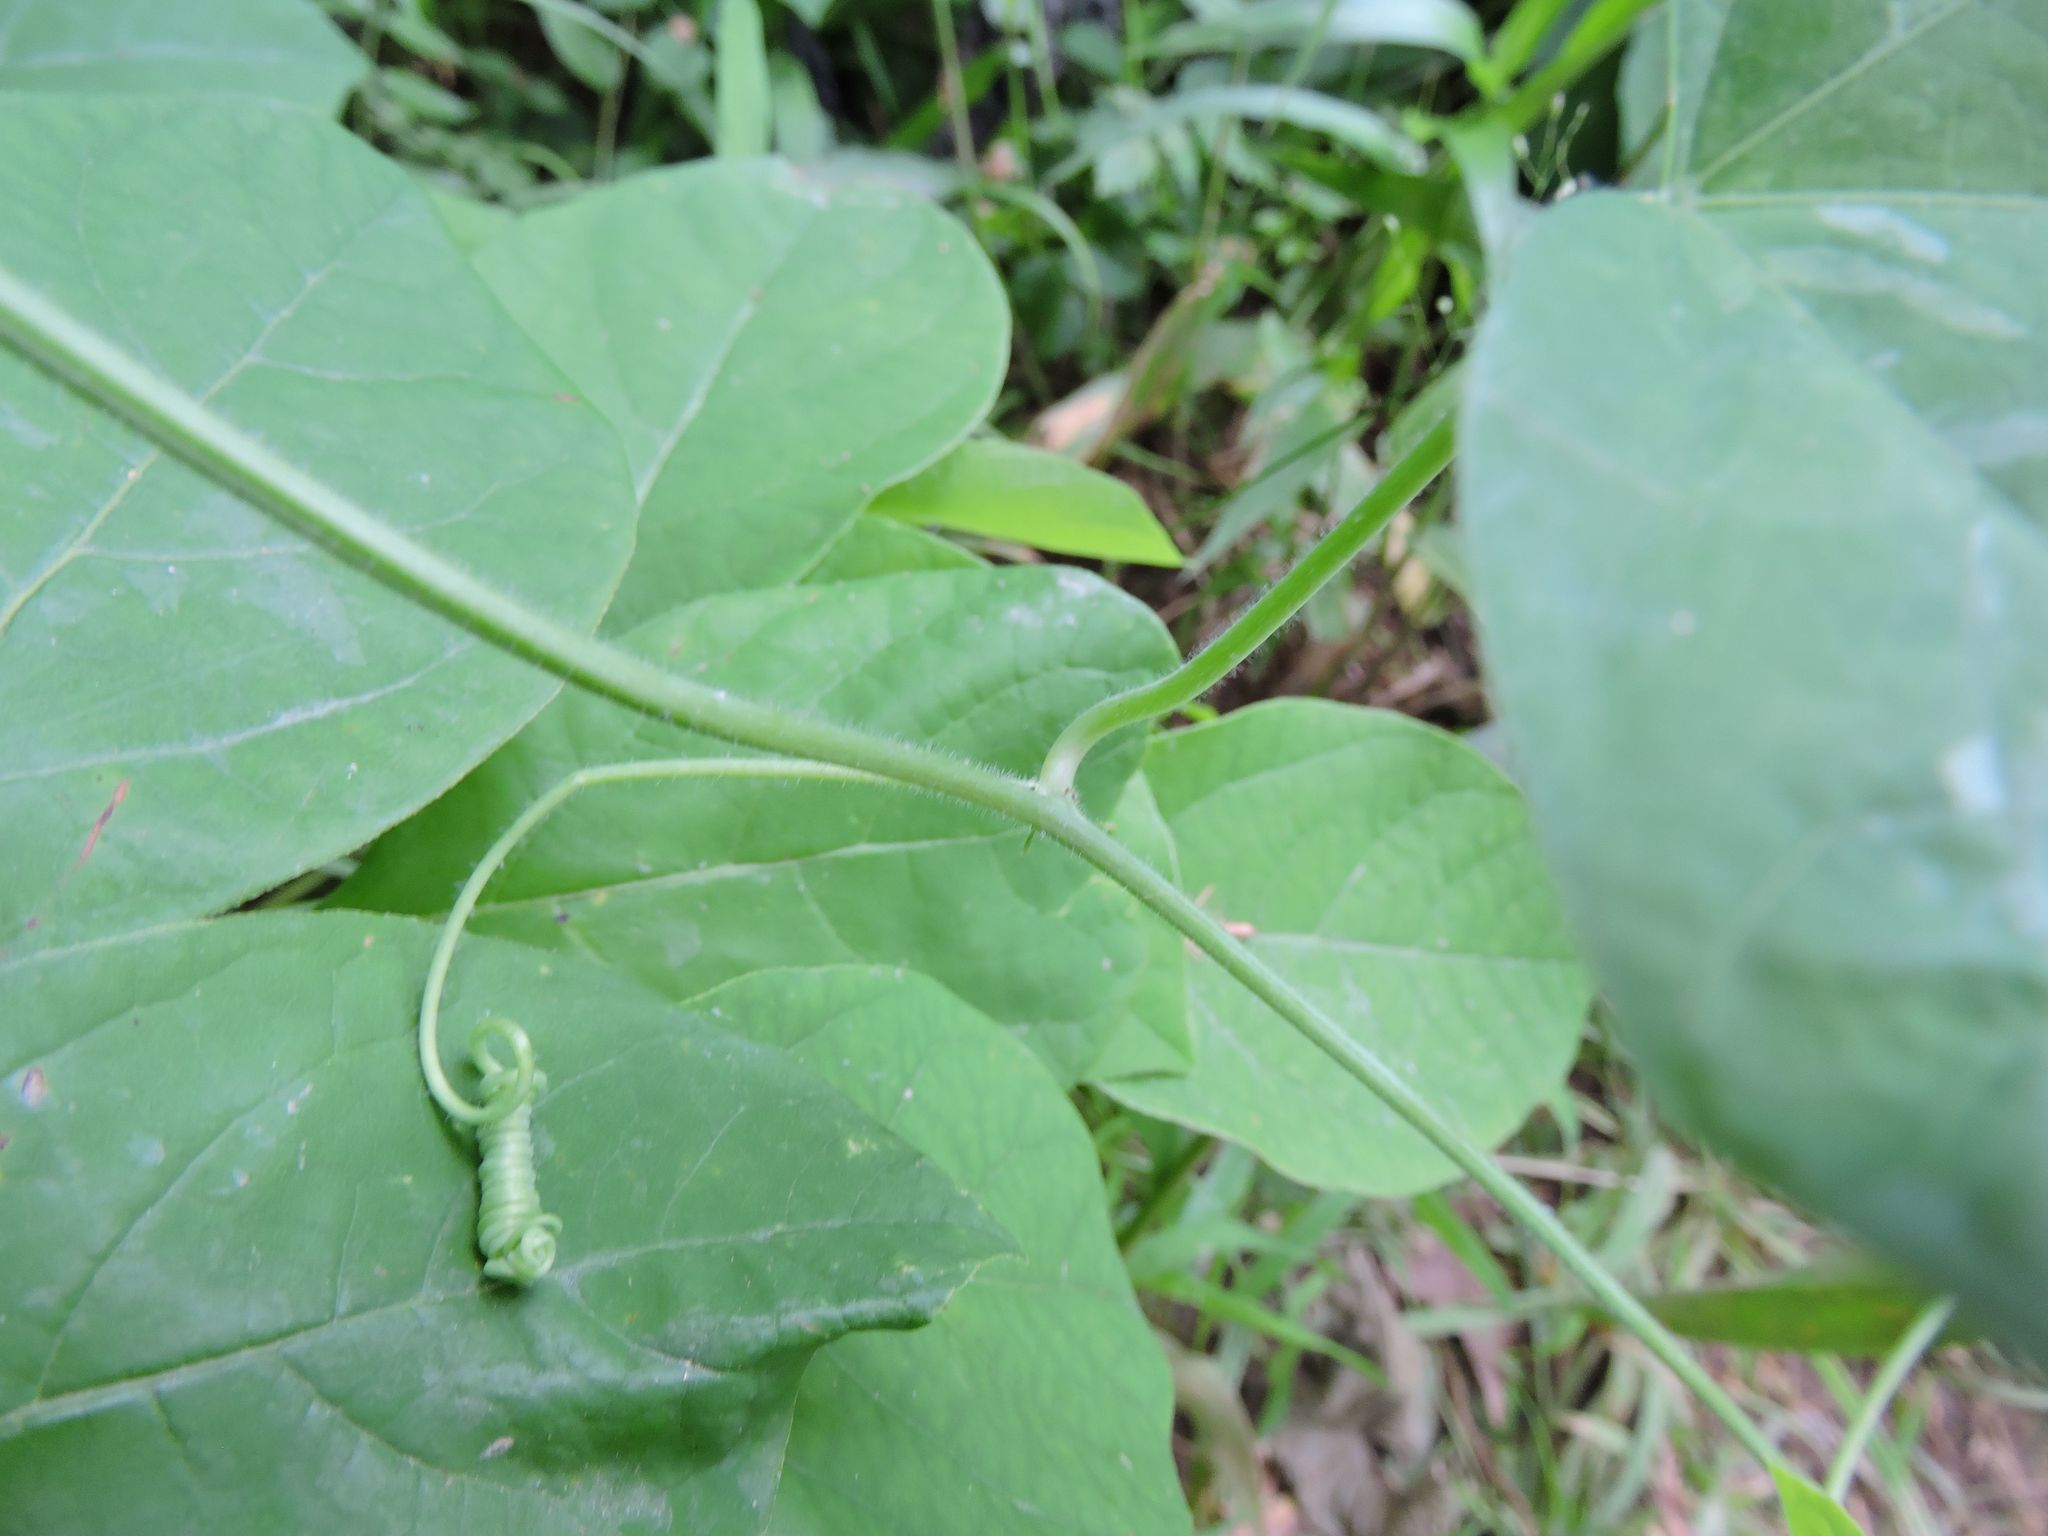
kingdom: Plantae
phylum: Tracheophyta
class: Magnoliopsida
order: Malpighiales
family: Passifloraceae
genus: Passiflora
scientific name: Passiflora lutea
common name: Yellow passionflower
